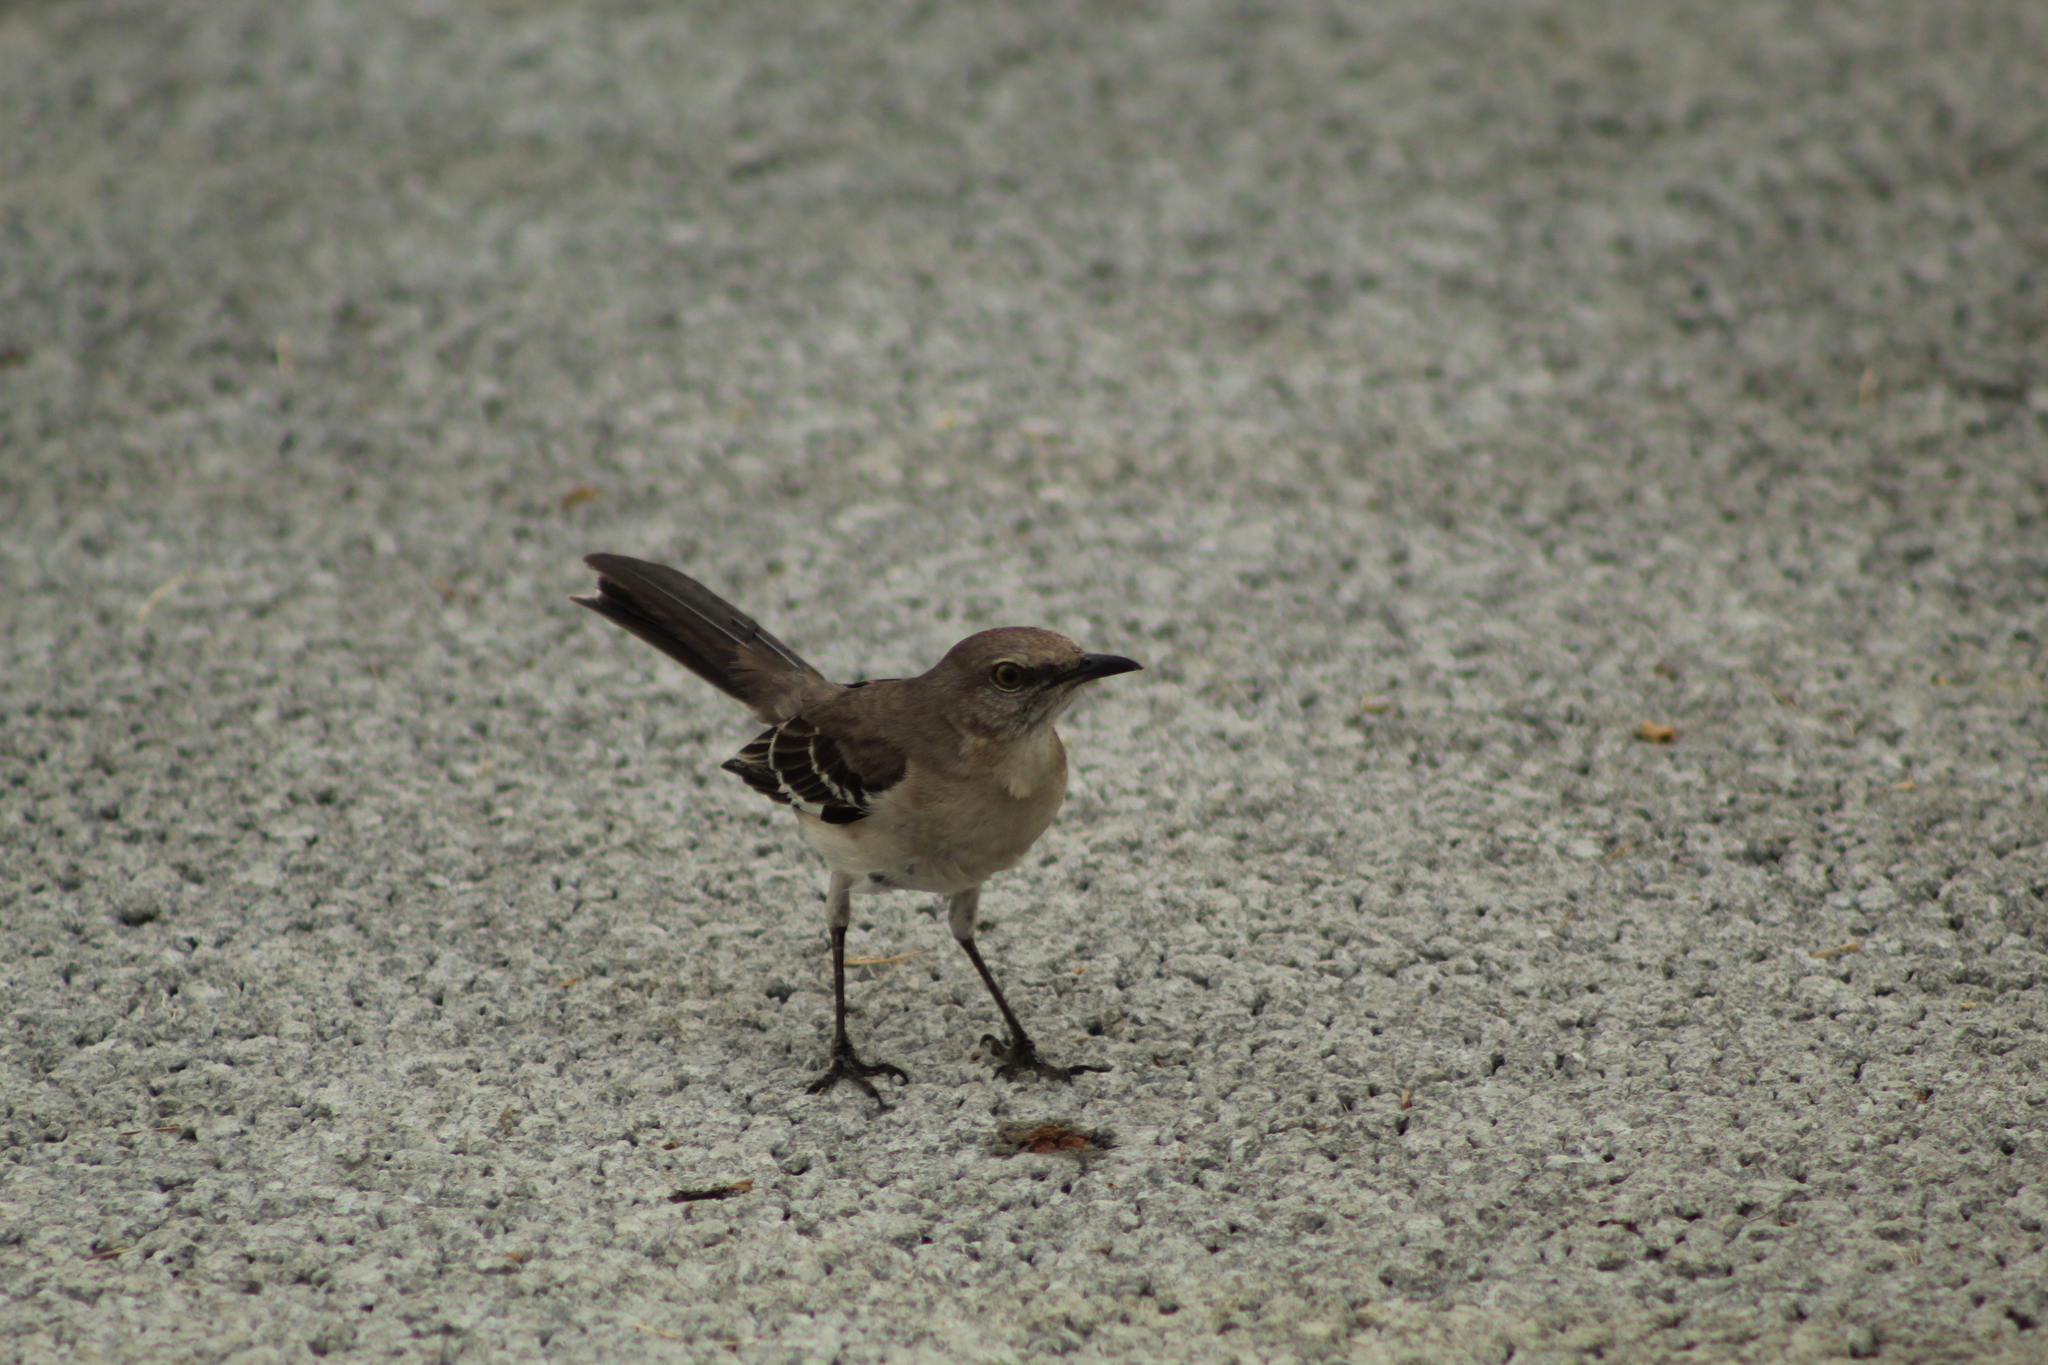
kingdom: Animalia
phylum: Chordata
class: Aves
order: Passeriformes
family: Mimidae
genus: Mimus
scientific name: Mimus polyglottos
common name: Northern mockingbird
